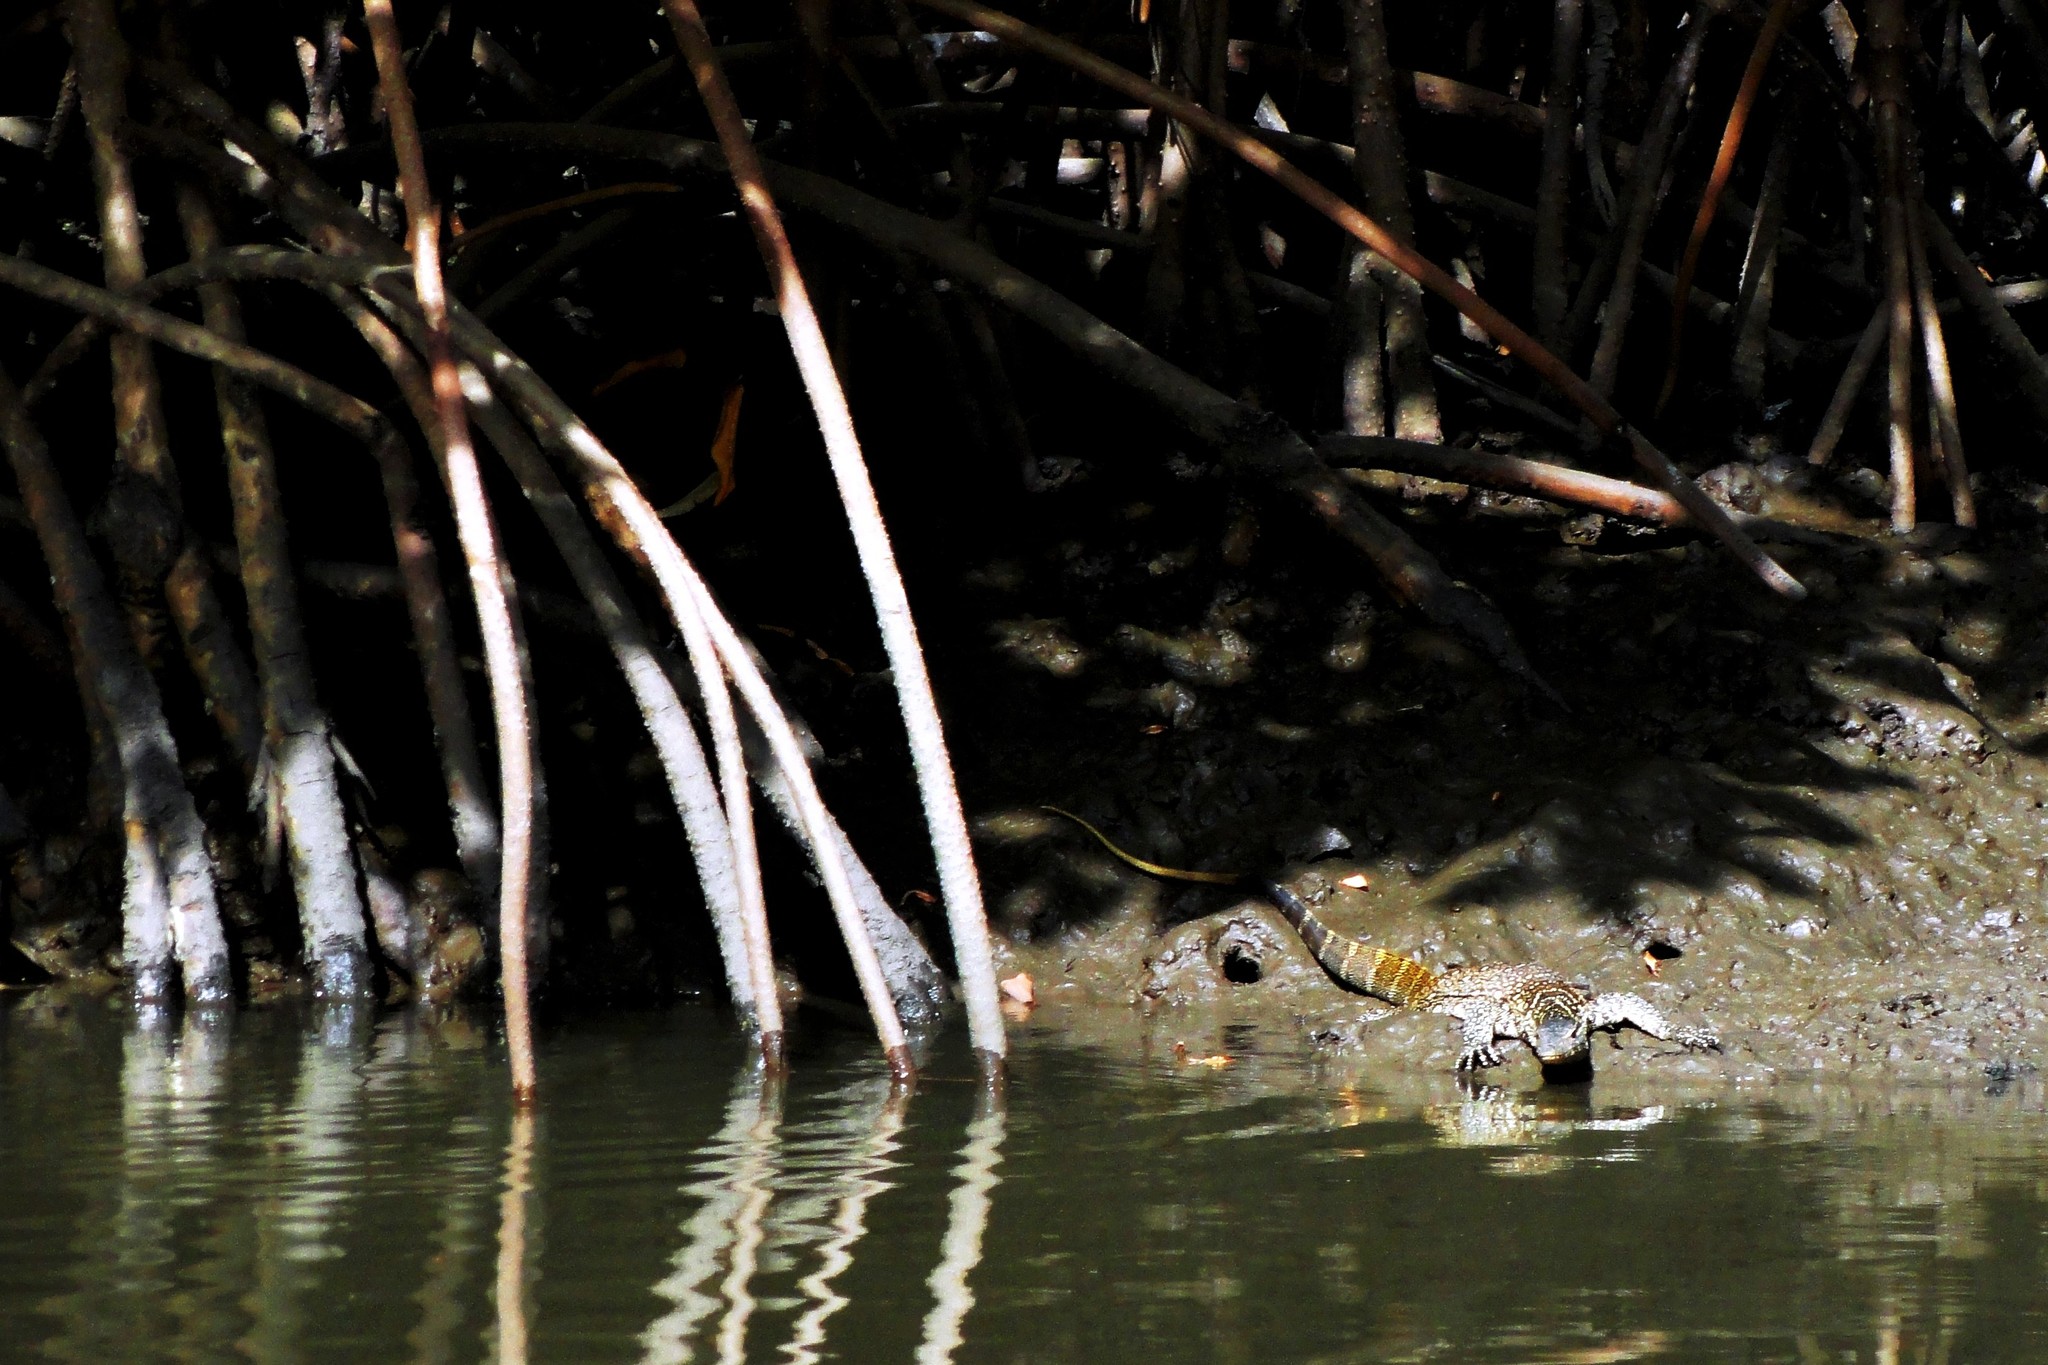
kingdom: Animalia
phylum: Chordata
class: Squamata
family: Varanidae
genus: Varanus
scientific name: Varanus niloticus
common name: Nile monitor
